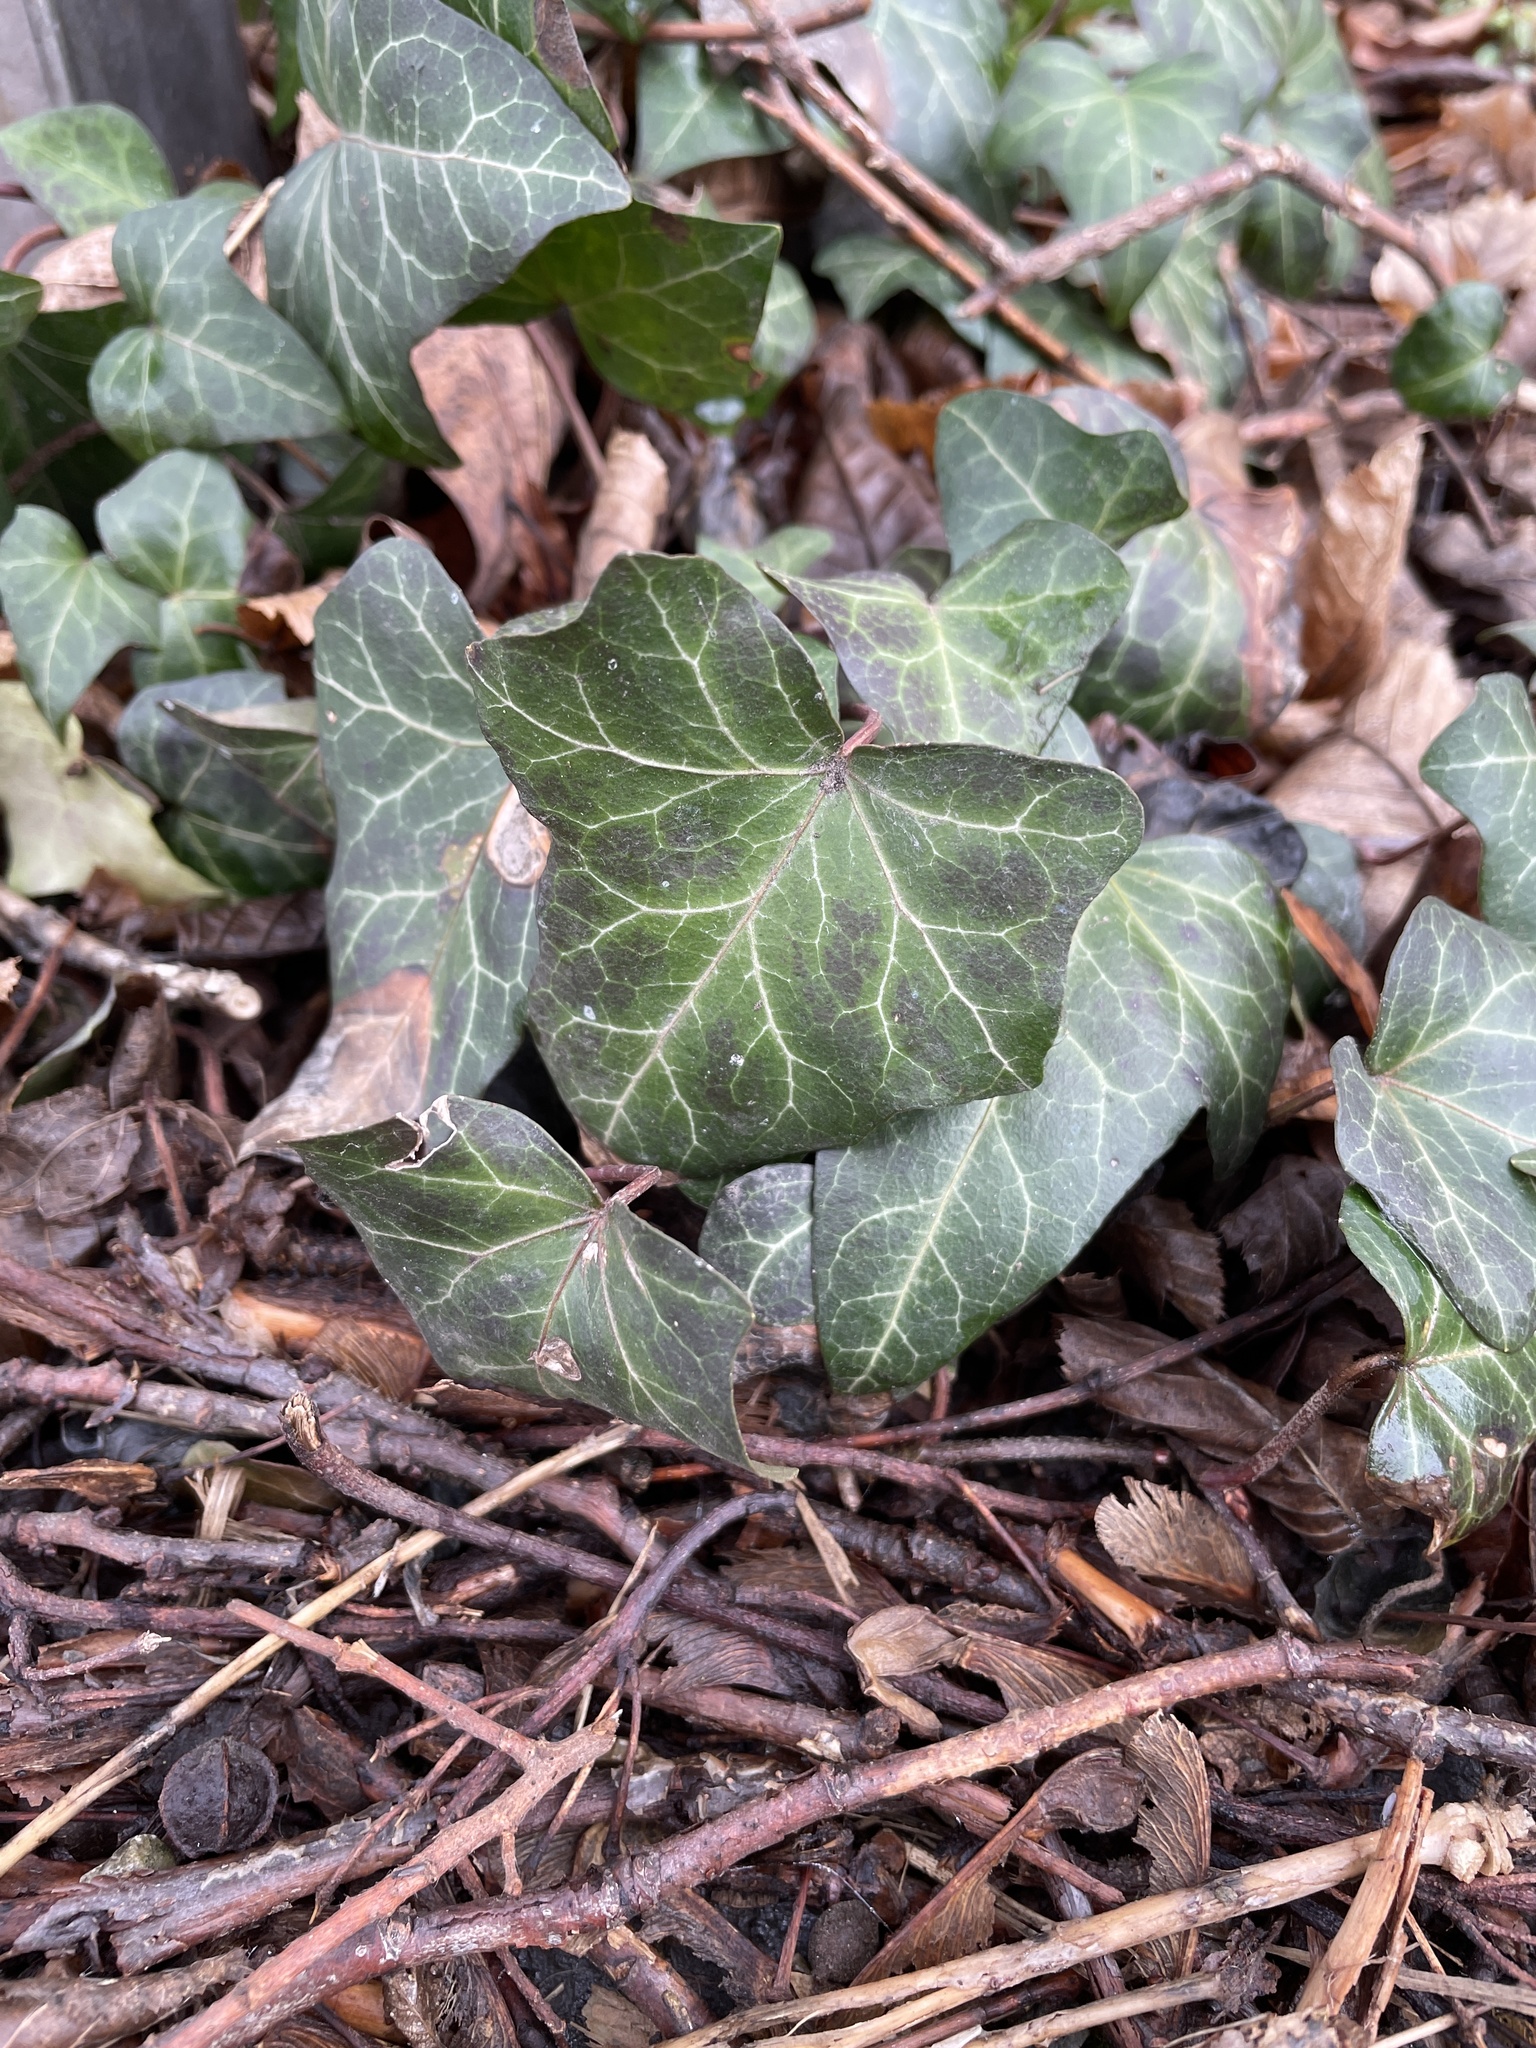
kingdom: Plantae
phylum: Tracheophyta
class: Magnoliopsida
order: Apiales
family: Araliaceae
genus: Hedera
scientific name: Hedera helix
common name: Ivy
